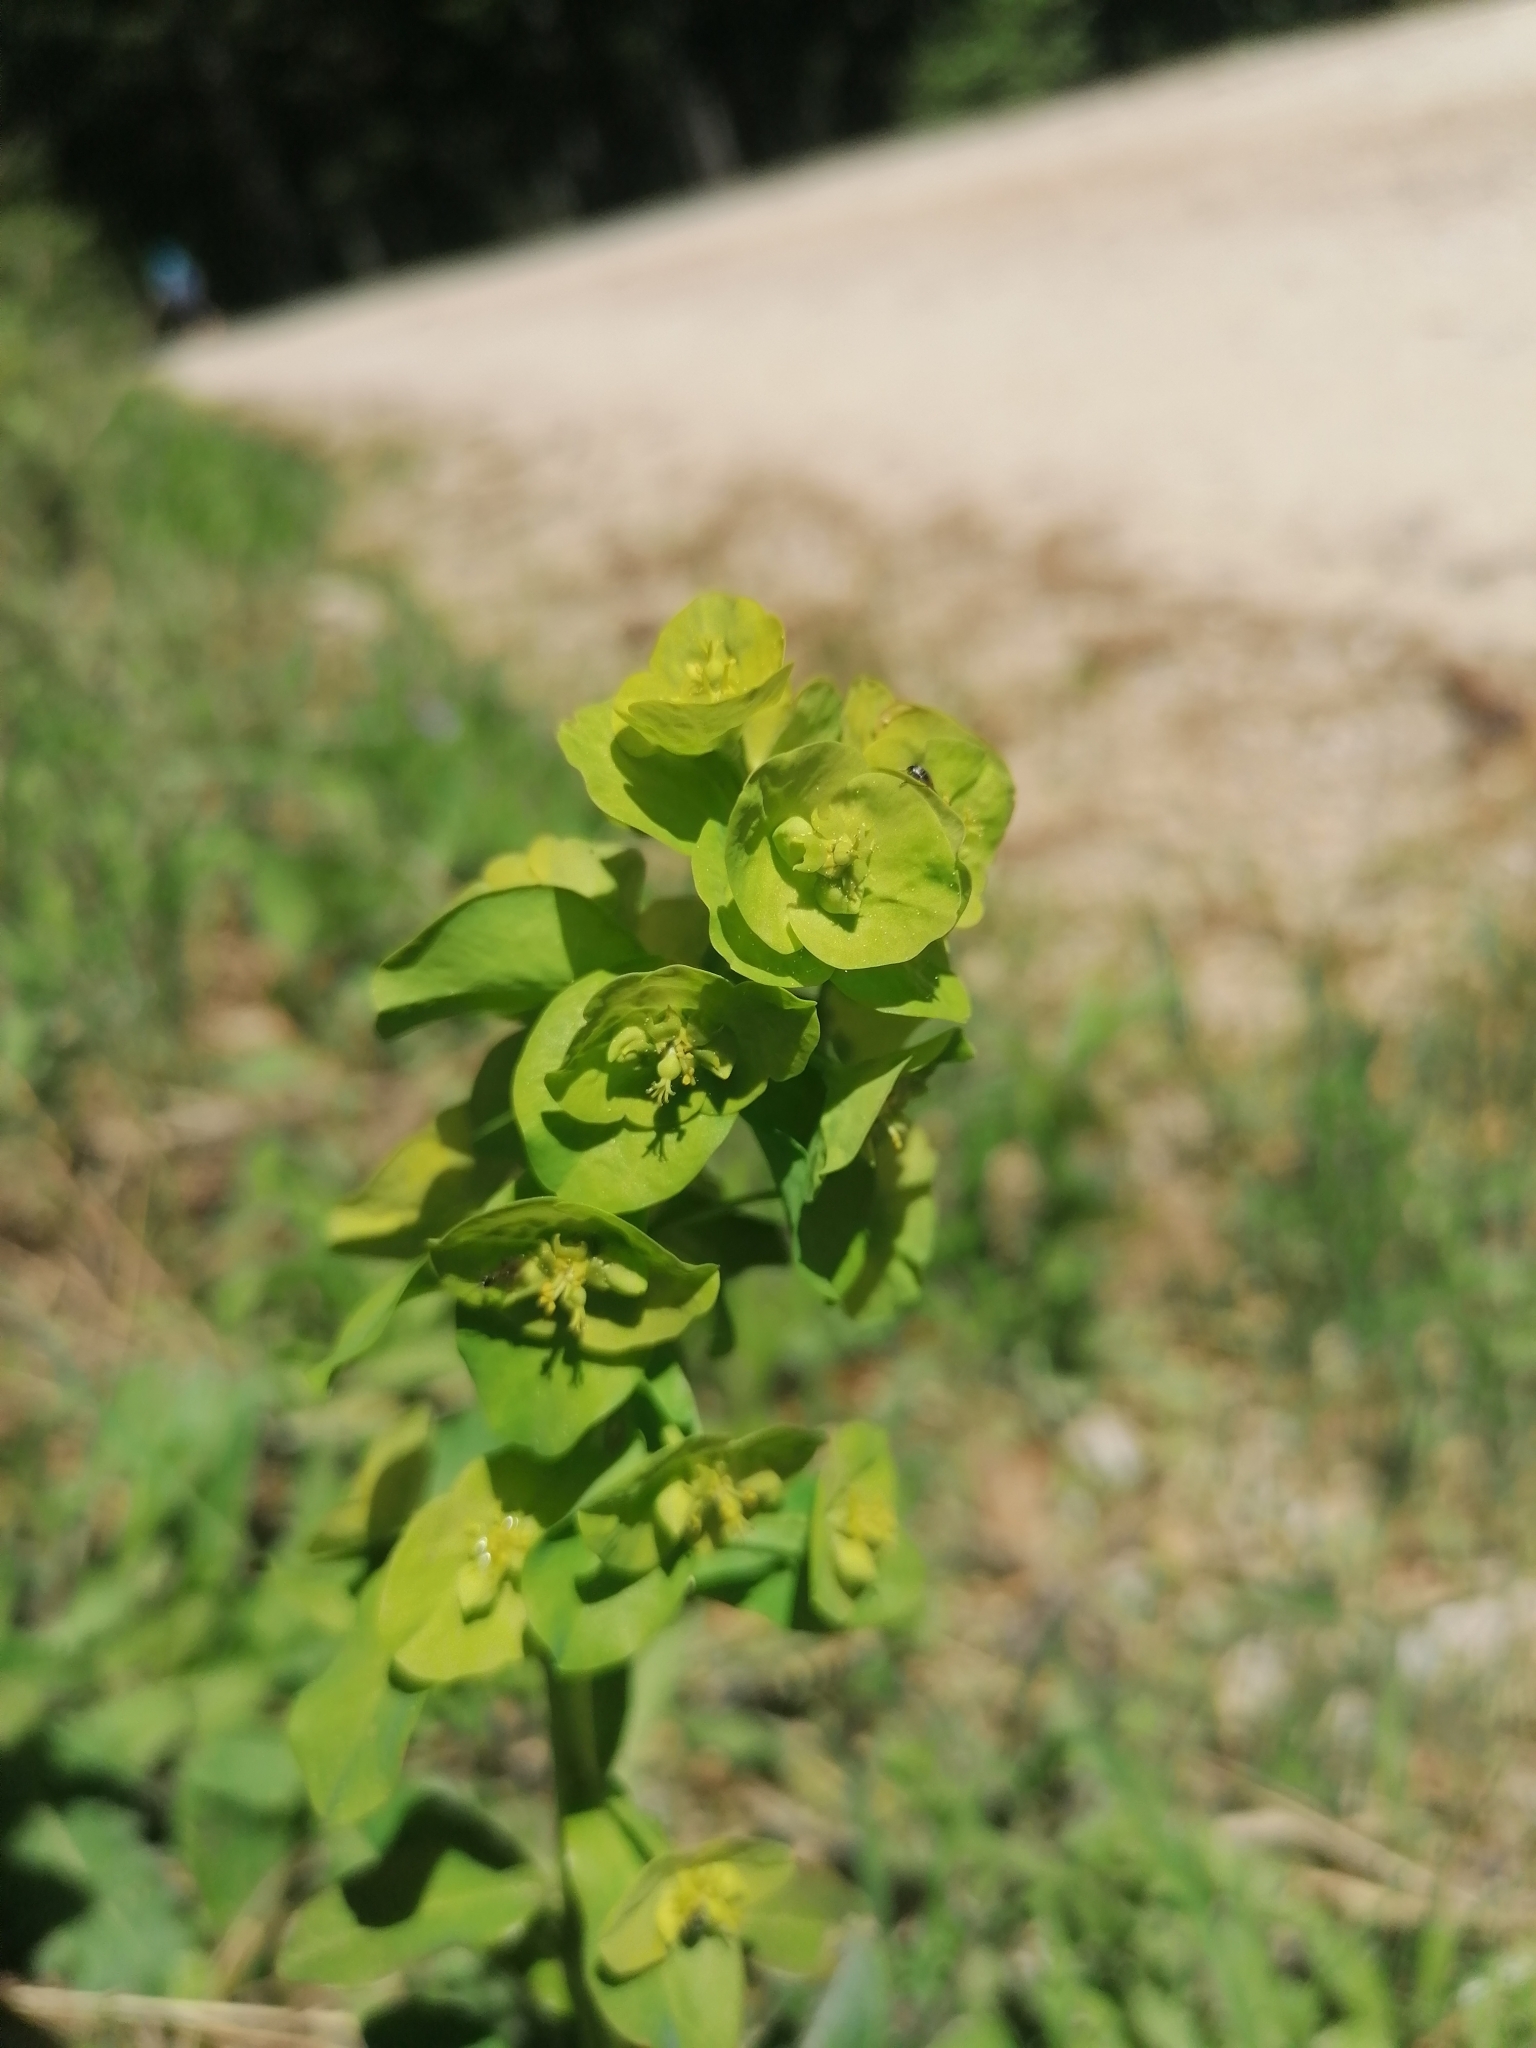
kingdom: Plantae
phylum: Tracheophyta
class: Magnoliopsida
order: Malpighiales
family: Euphorbiaceae
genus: Euphorbia
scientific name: Euphorbia amygdaloides
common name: Wood spurge
